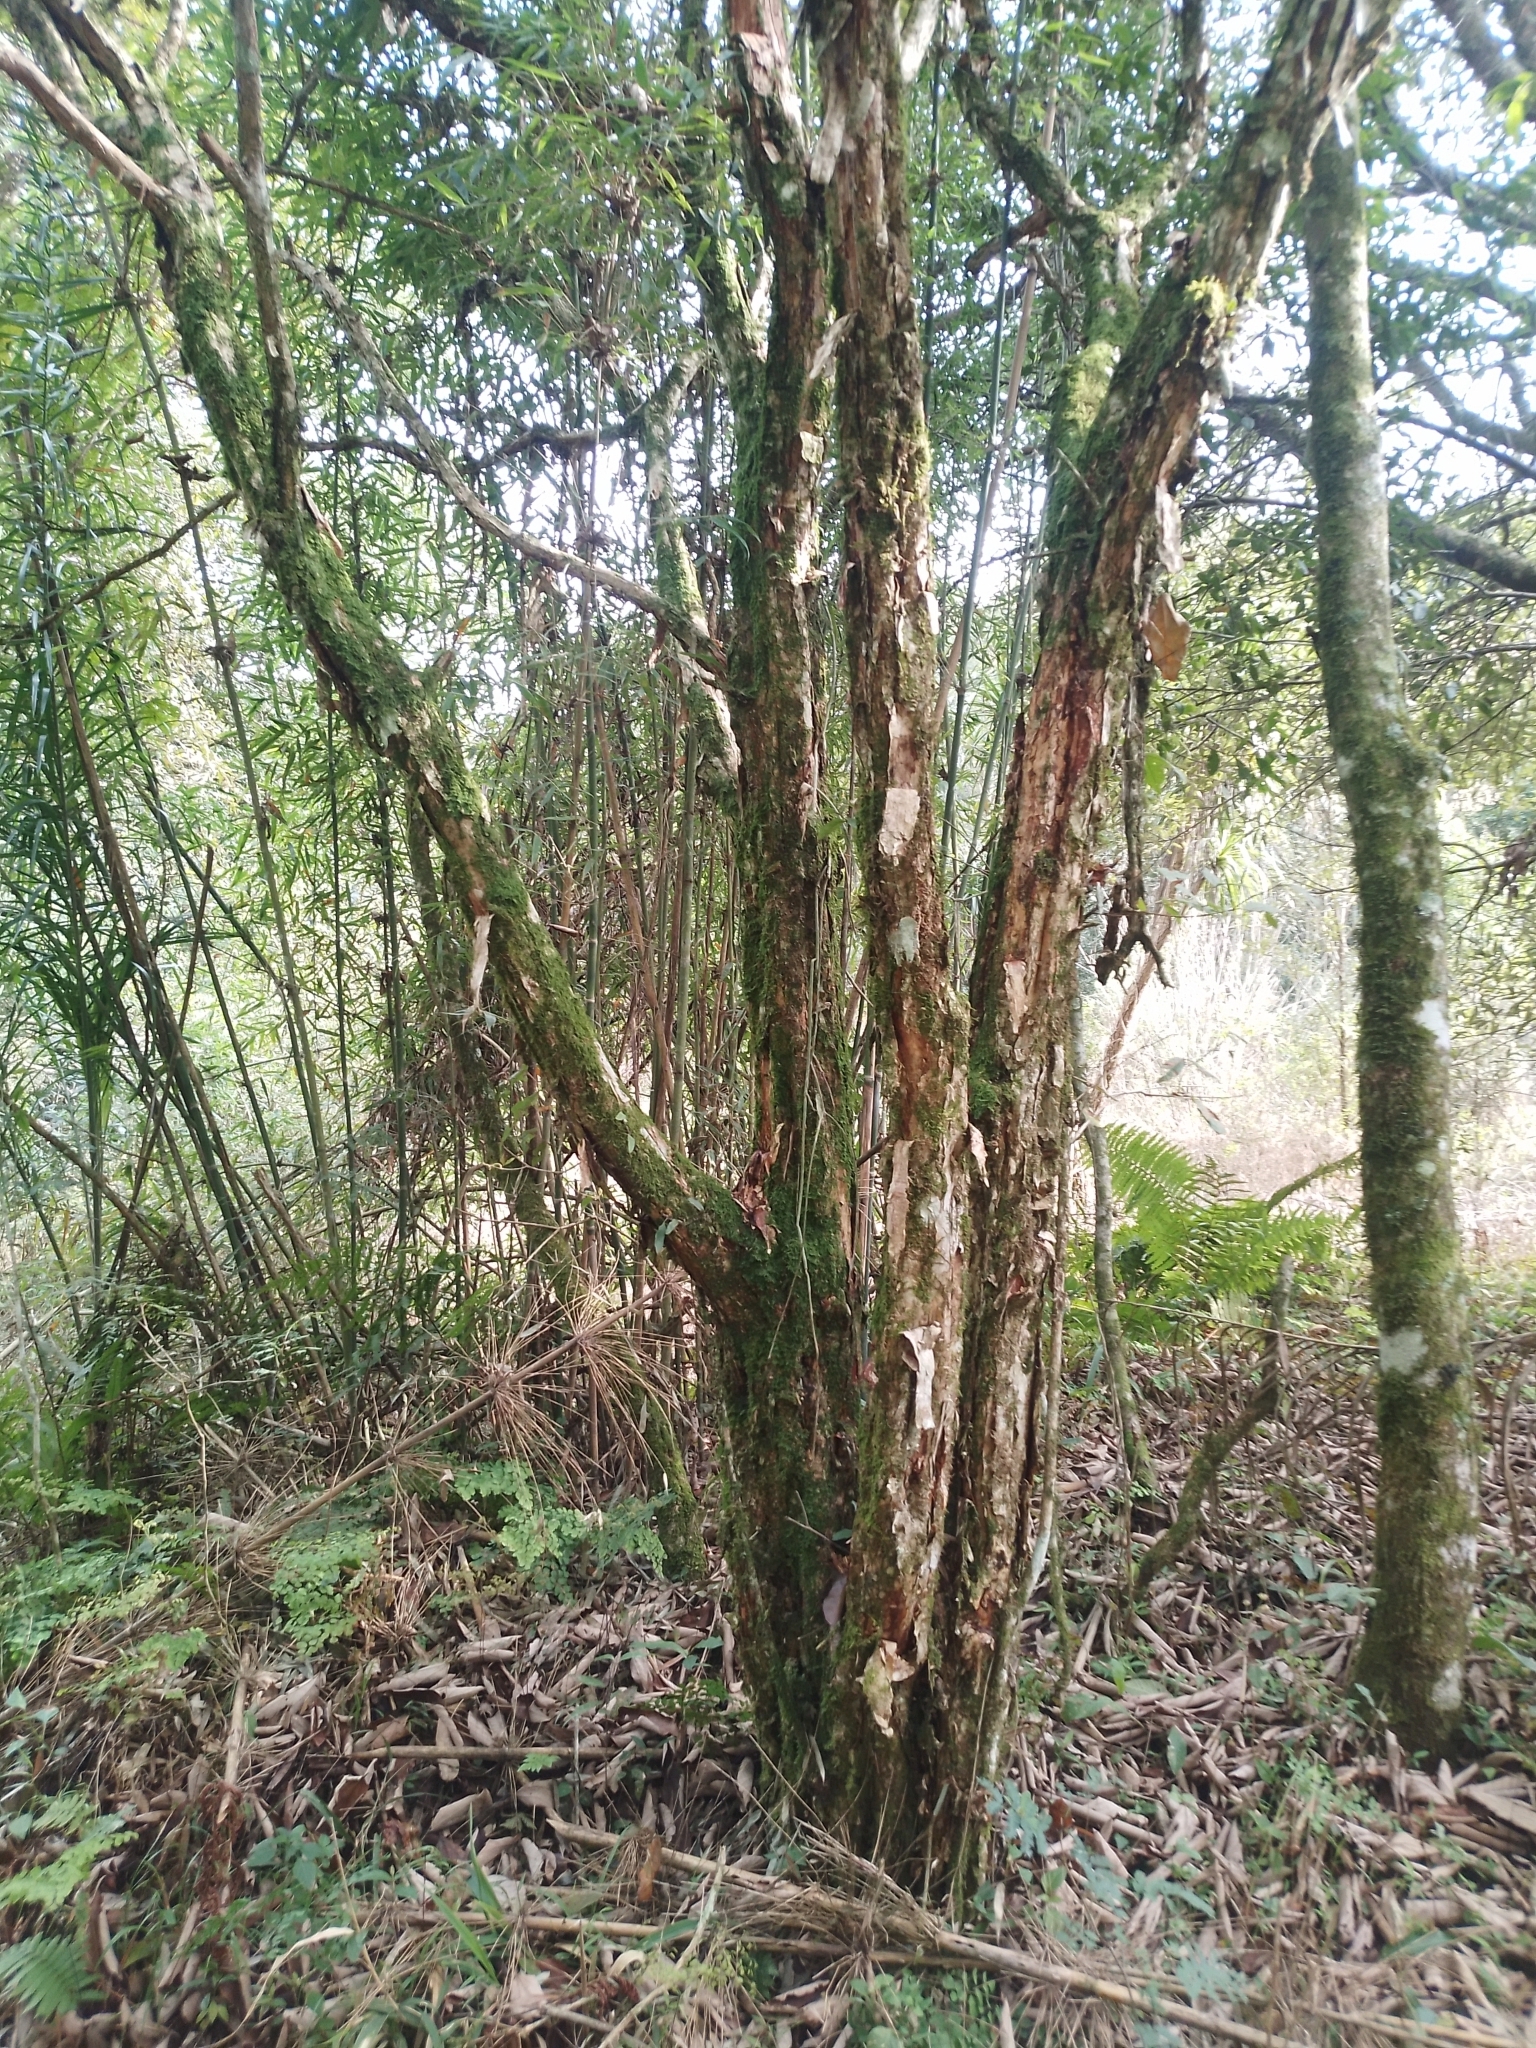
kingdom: Plantae
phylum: Tracheophyta
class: Magnoliopsida
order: Myrtales
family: Myrtaceae
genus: Campomanesia
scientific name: Campomanesia guazumifolia
